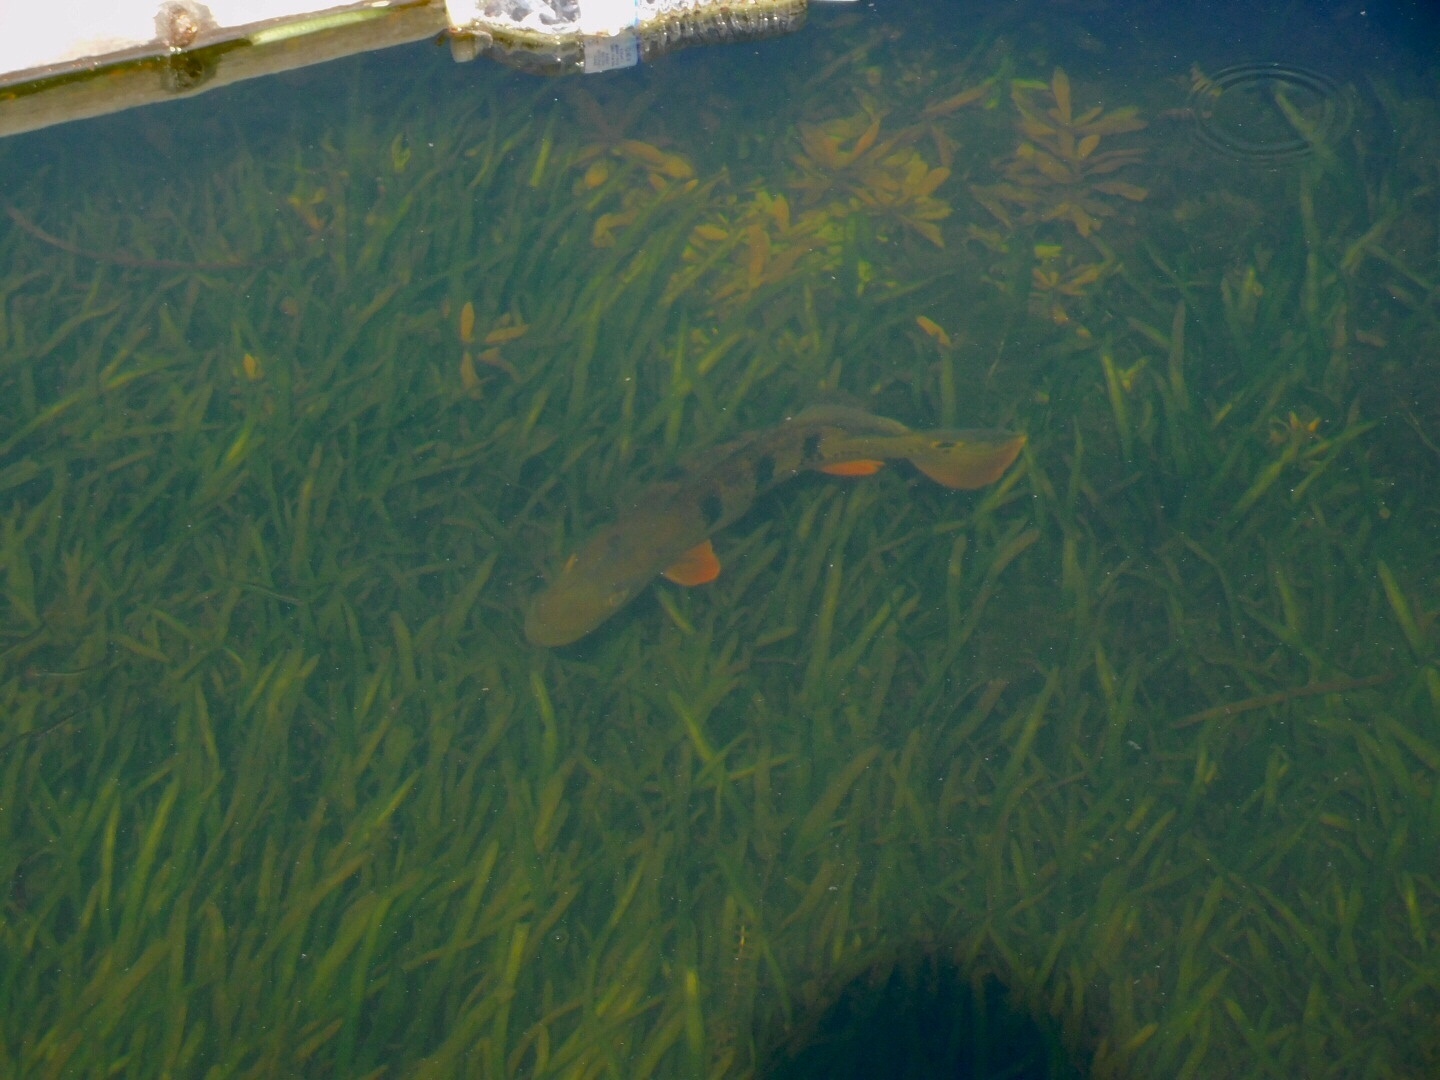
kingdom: Animalia
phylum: Chordata
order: Perciformes
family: Cichlidae
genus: Cichla
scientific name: Cichla ocellaris
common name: Peacock cichlid
